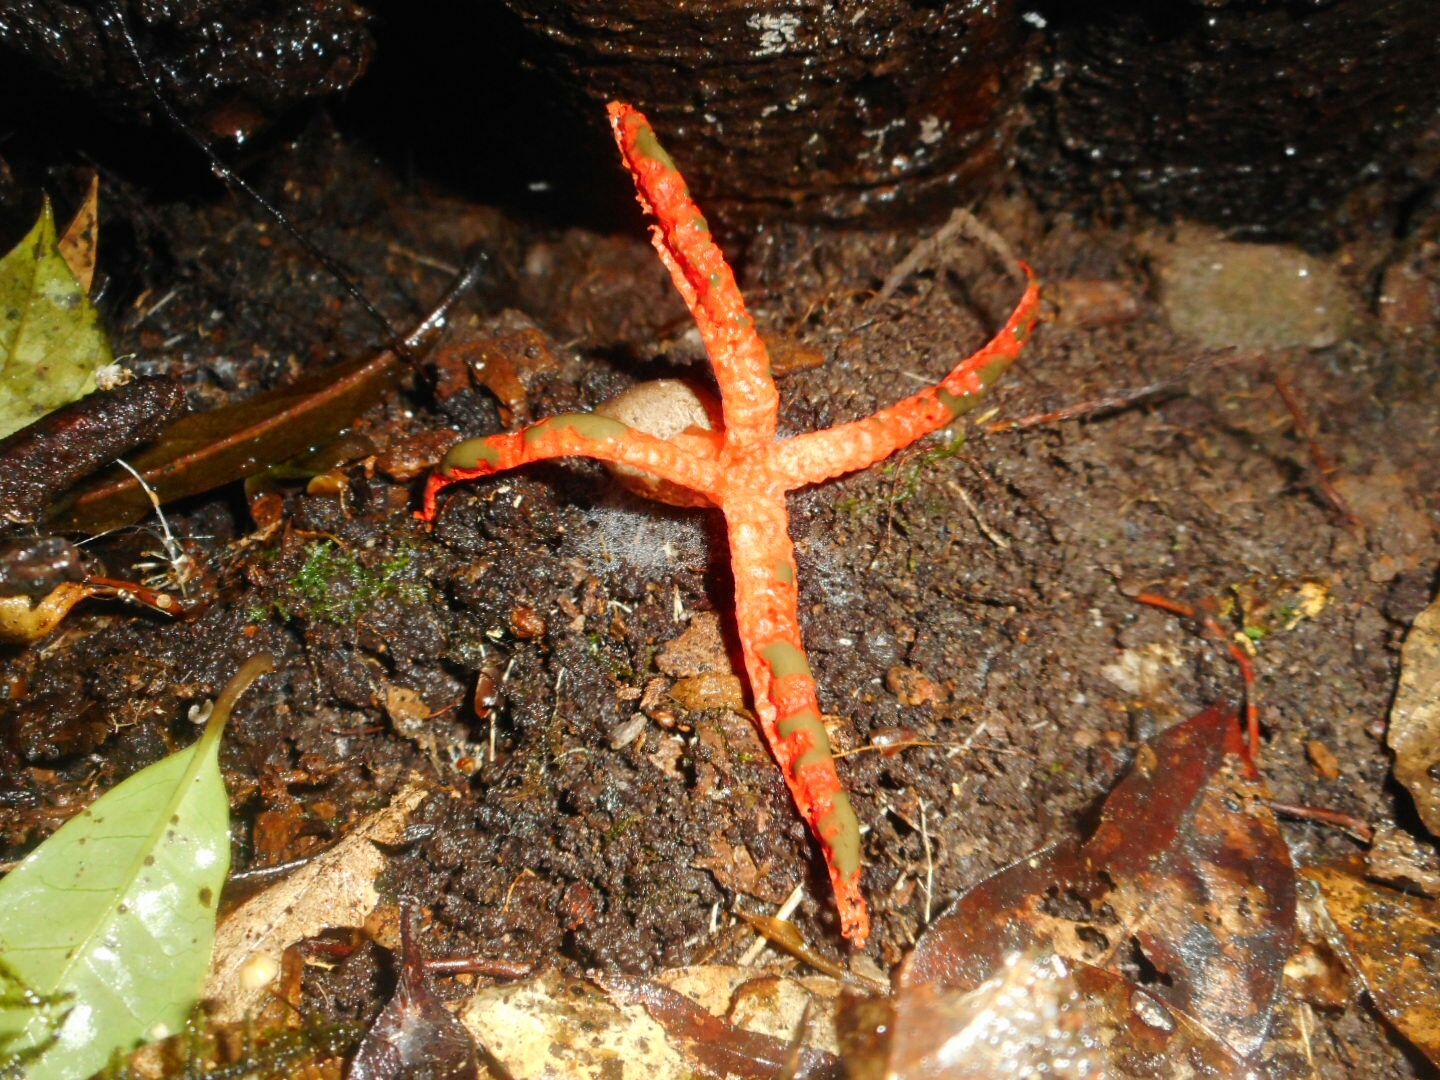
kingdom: Fungi
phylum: Basidiomycota
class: Agaricomycetes
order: Phallales
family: Phallaceae
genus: Pseudocolus
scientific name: Pseudocolus fusiformis
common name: Stinky squid
